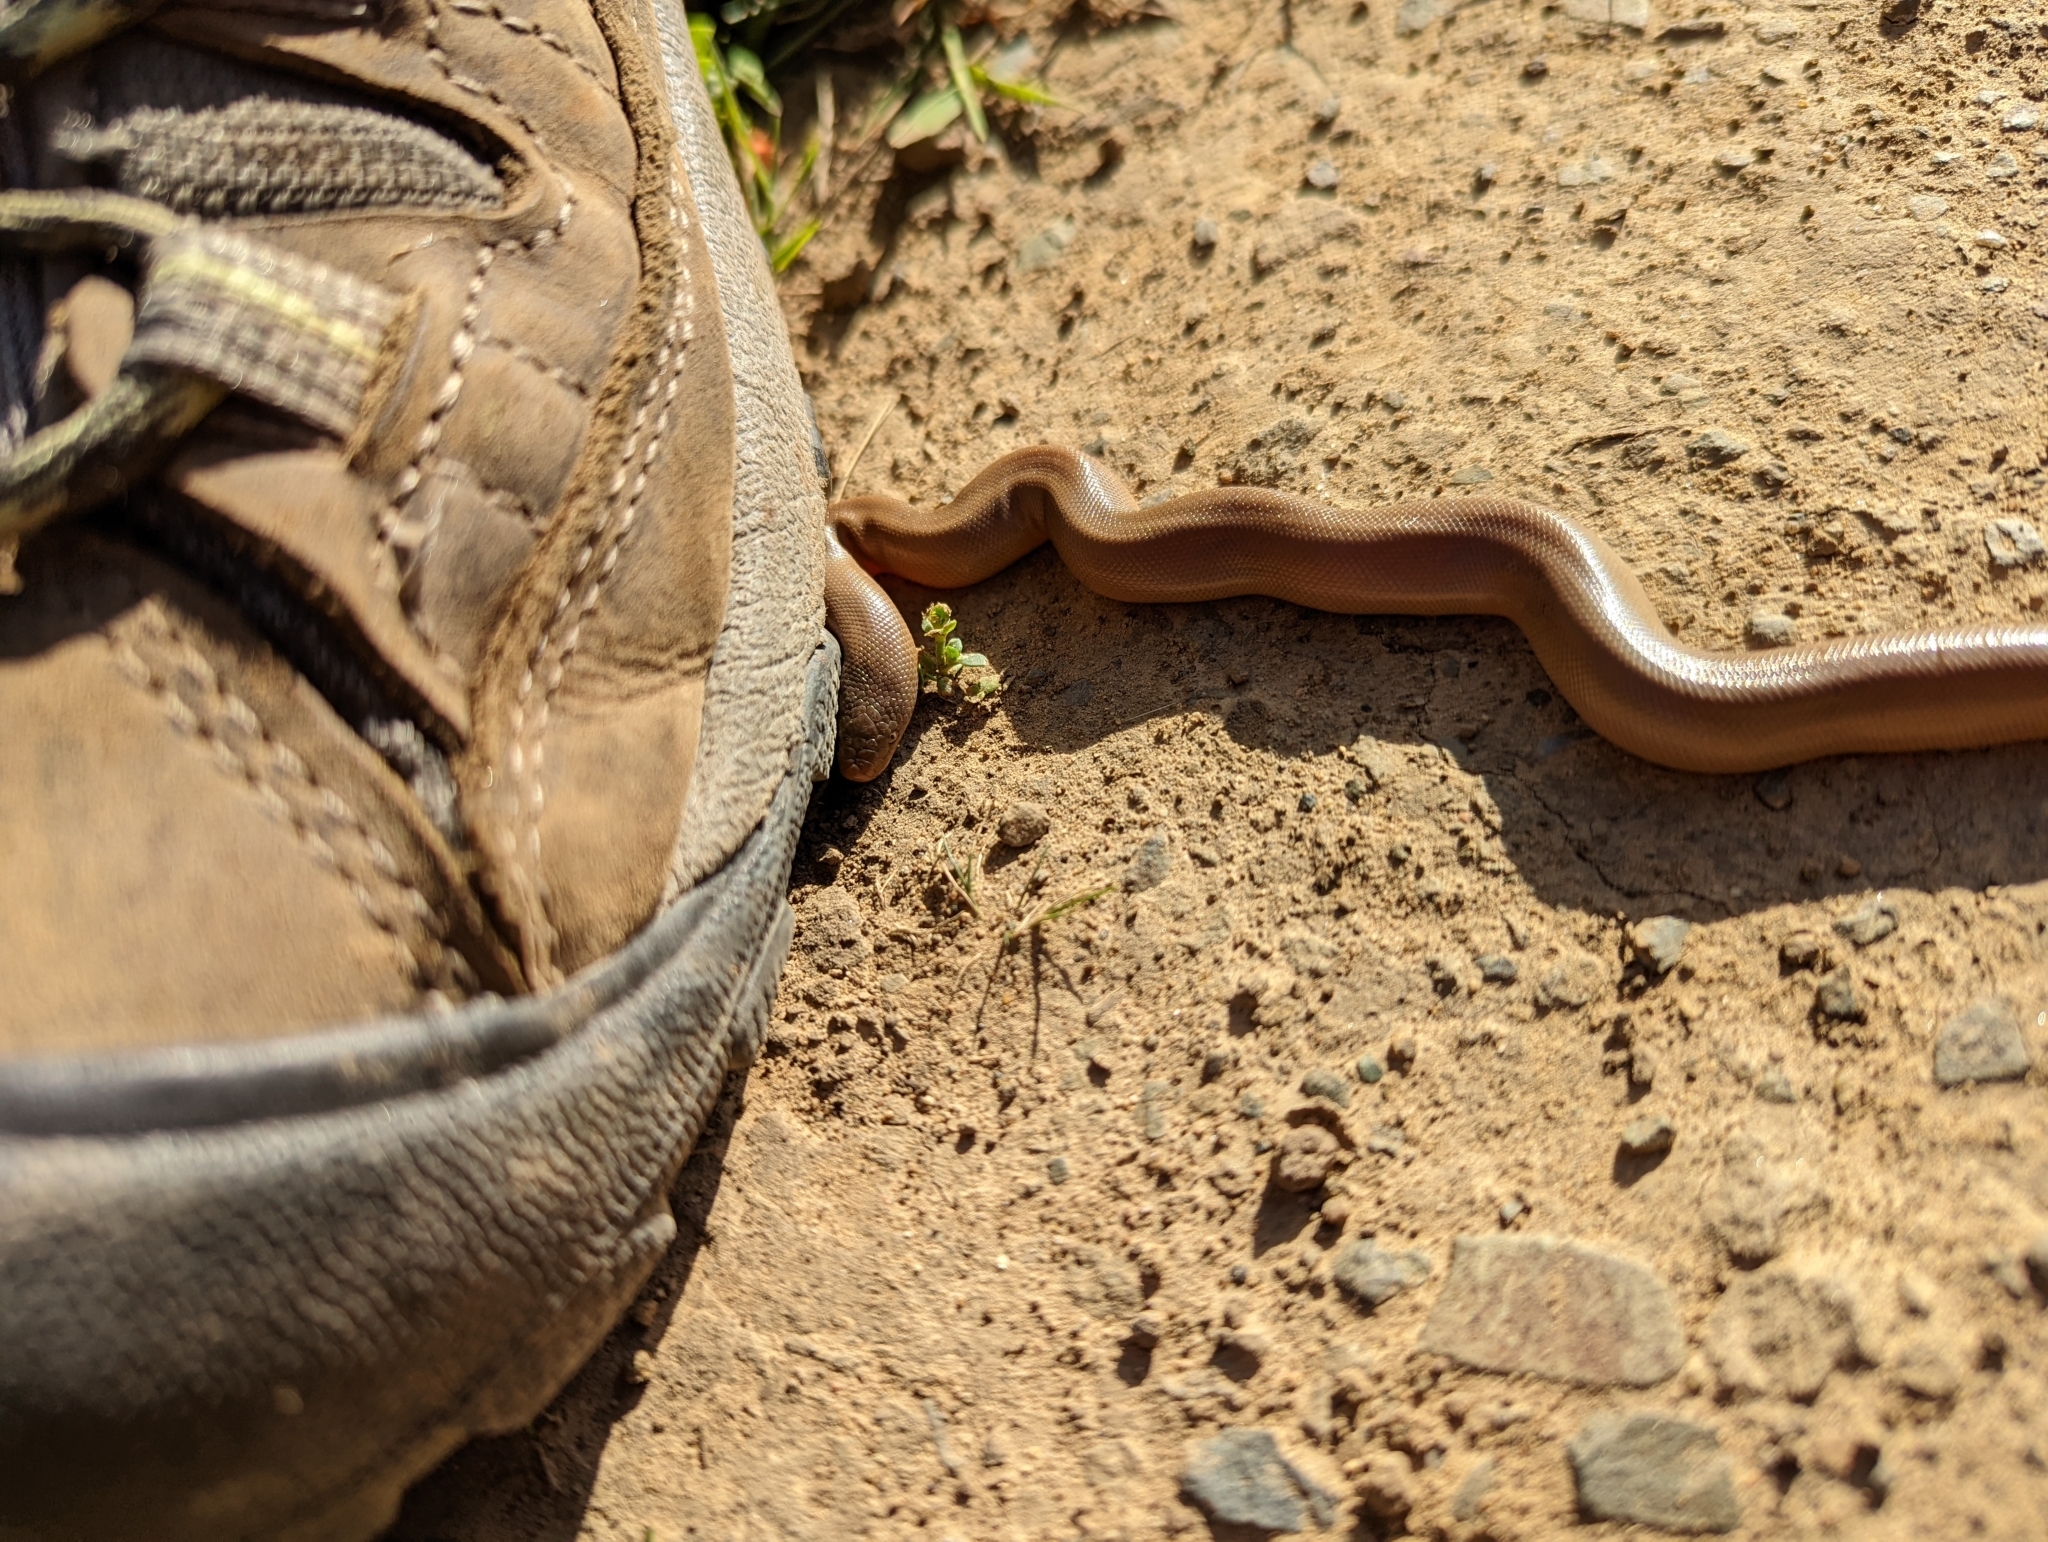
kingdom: Animalia
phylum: Chordata
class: Squamata
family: Boidae
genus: Charina
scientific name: Charina bottae
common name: Northern rubber boa
